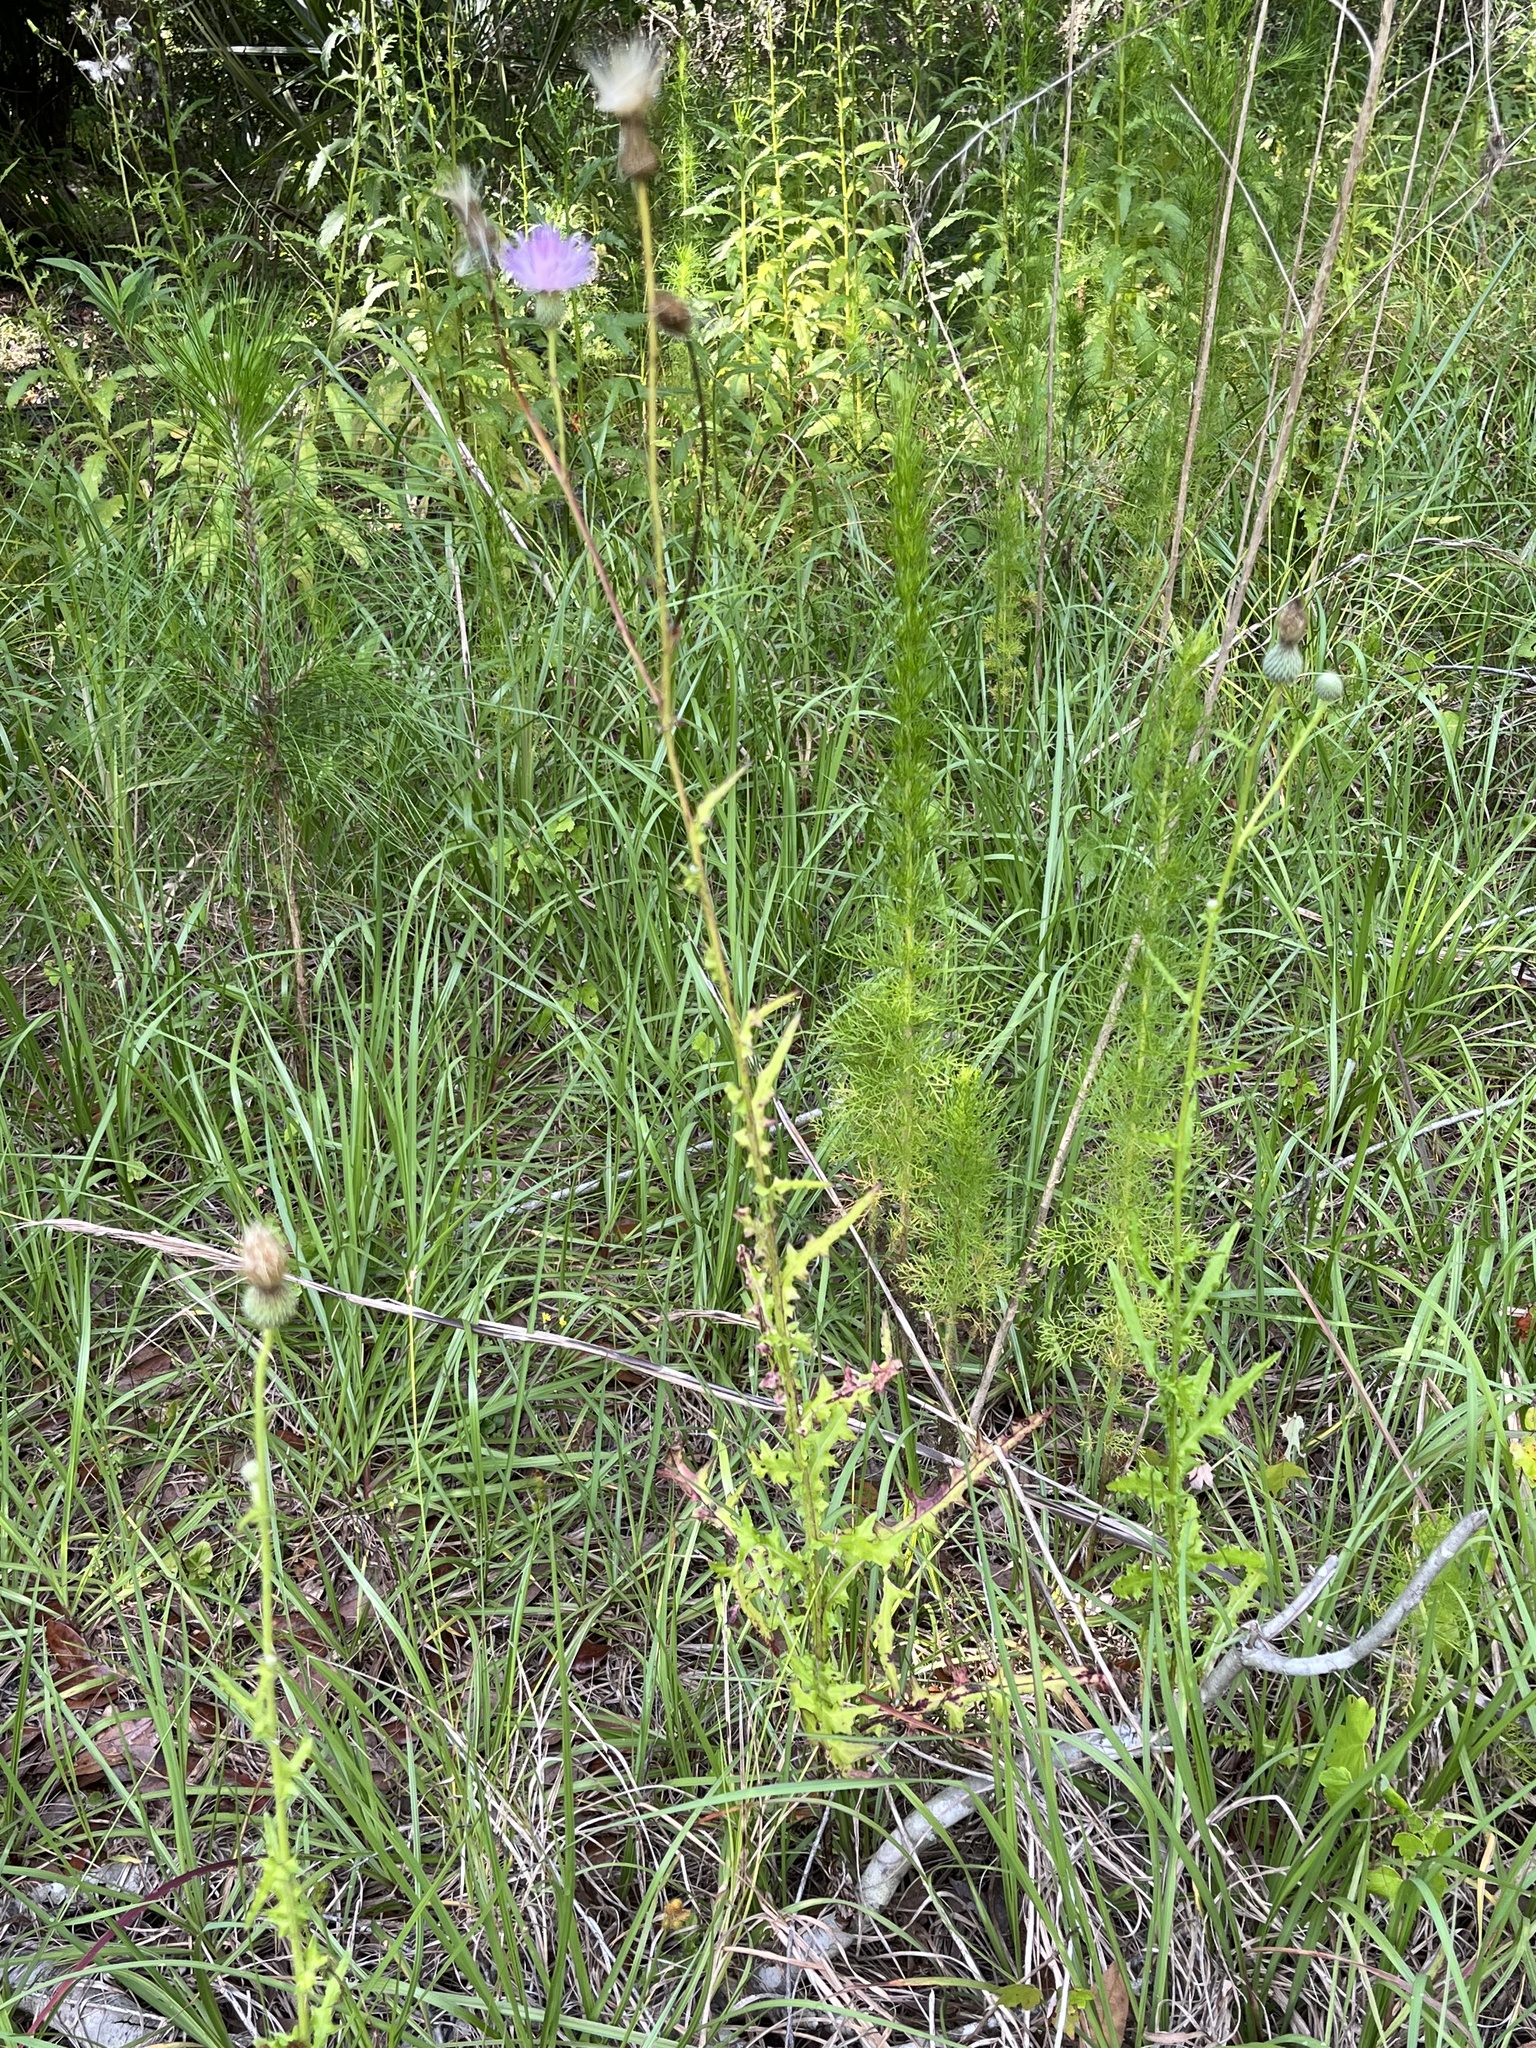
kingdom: Plantae
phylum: Tracheophyta
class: Magnoliopsida
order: Asterales
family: Asteraceae
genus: Cirsium
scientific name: Cirsium nuttalii
